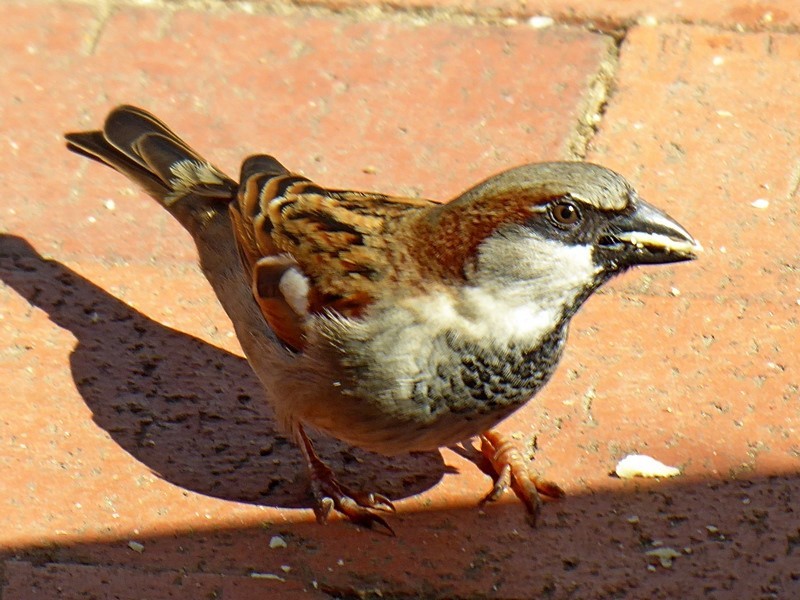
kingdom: Animalia
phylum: Chordata
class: Aves
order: Passeriformes
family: Passeridae
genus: Passer
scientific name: Passer domesticus
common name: House sparrow
